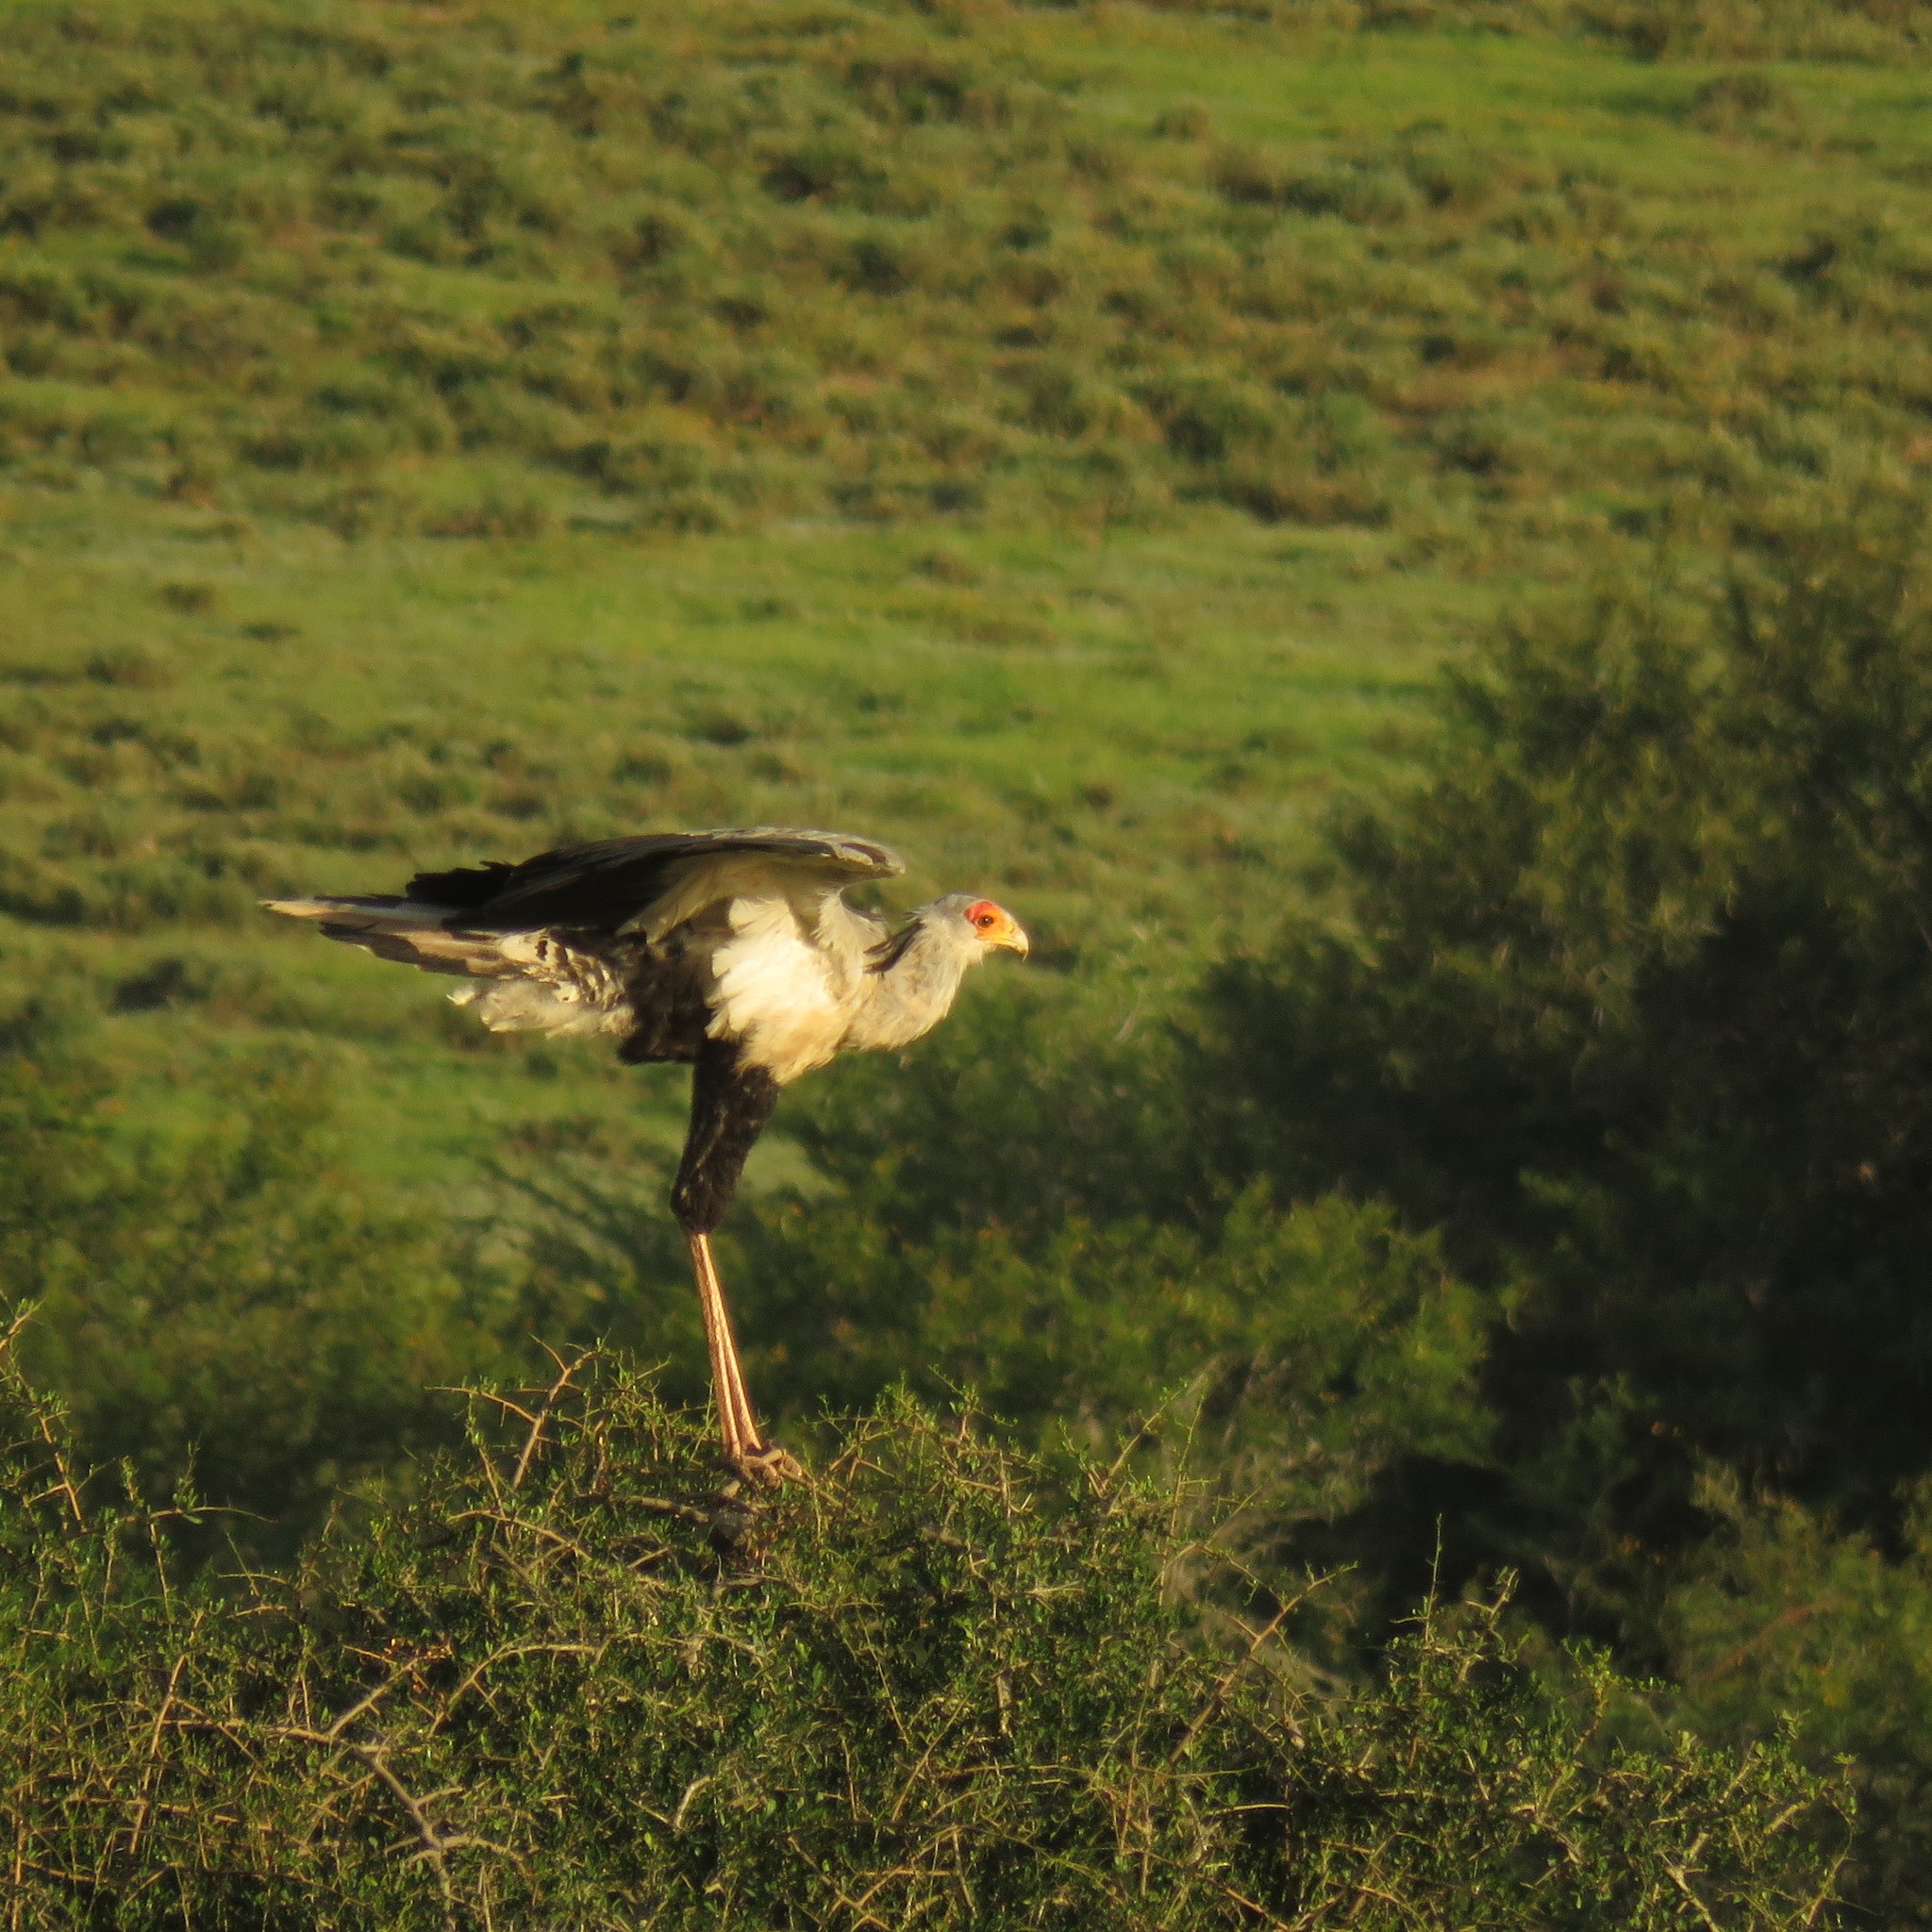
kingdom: Animalia
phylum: Chordata
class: Aves
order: Accipitriformes
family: Sagittariidae
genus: Sagittarius
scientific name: Sagittarius serpentarius
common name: Secretarybird
